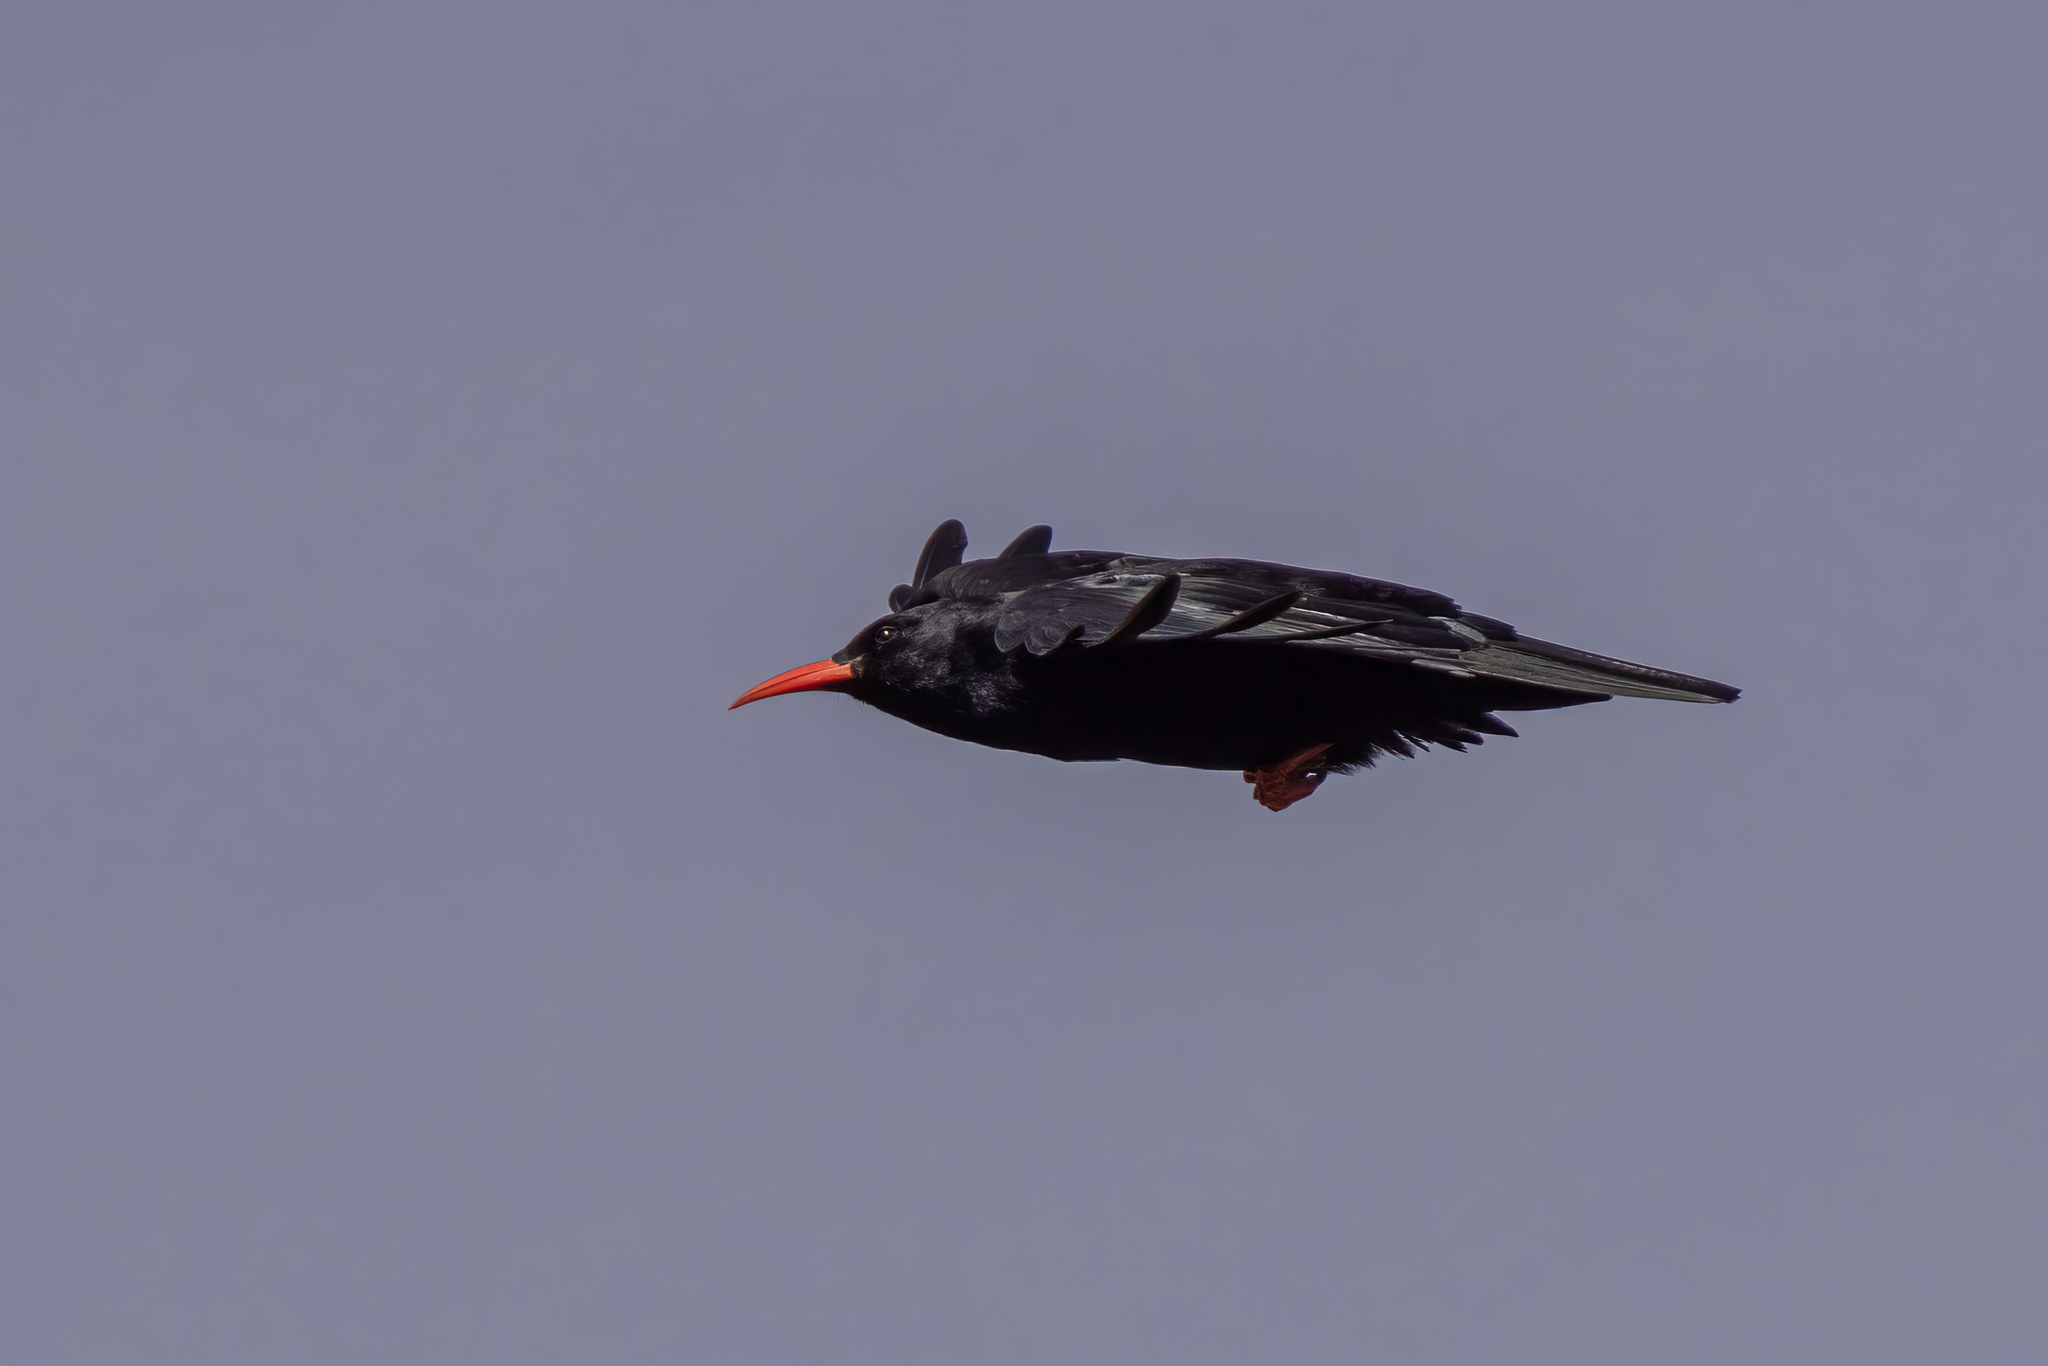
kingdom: Animalia
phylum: Chordata
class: Aves
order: Passeriformes
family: Corvidae
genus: Pyrrhocorax
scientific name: Pyrrhocorax pyrrhocorax
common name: Red-billed chough
